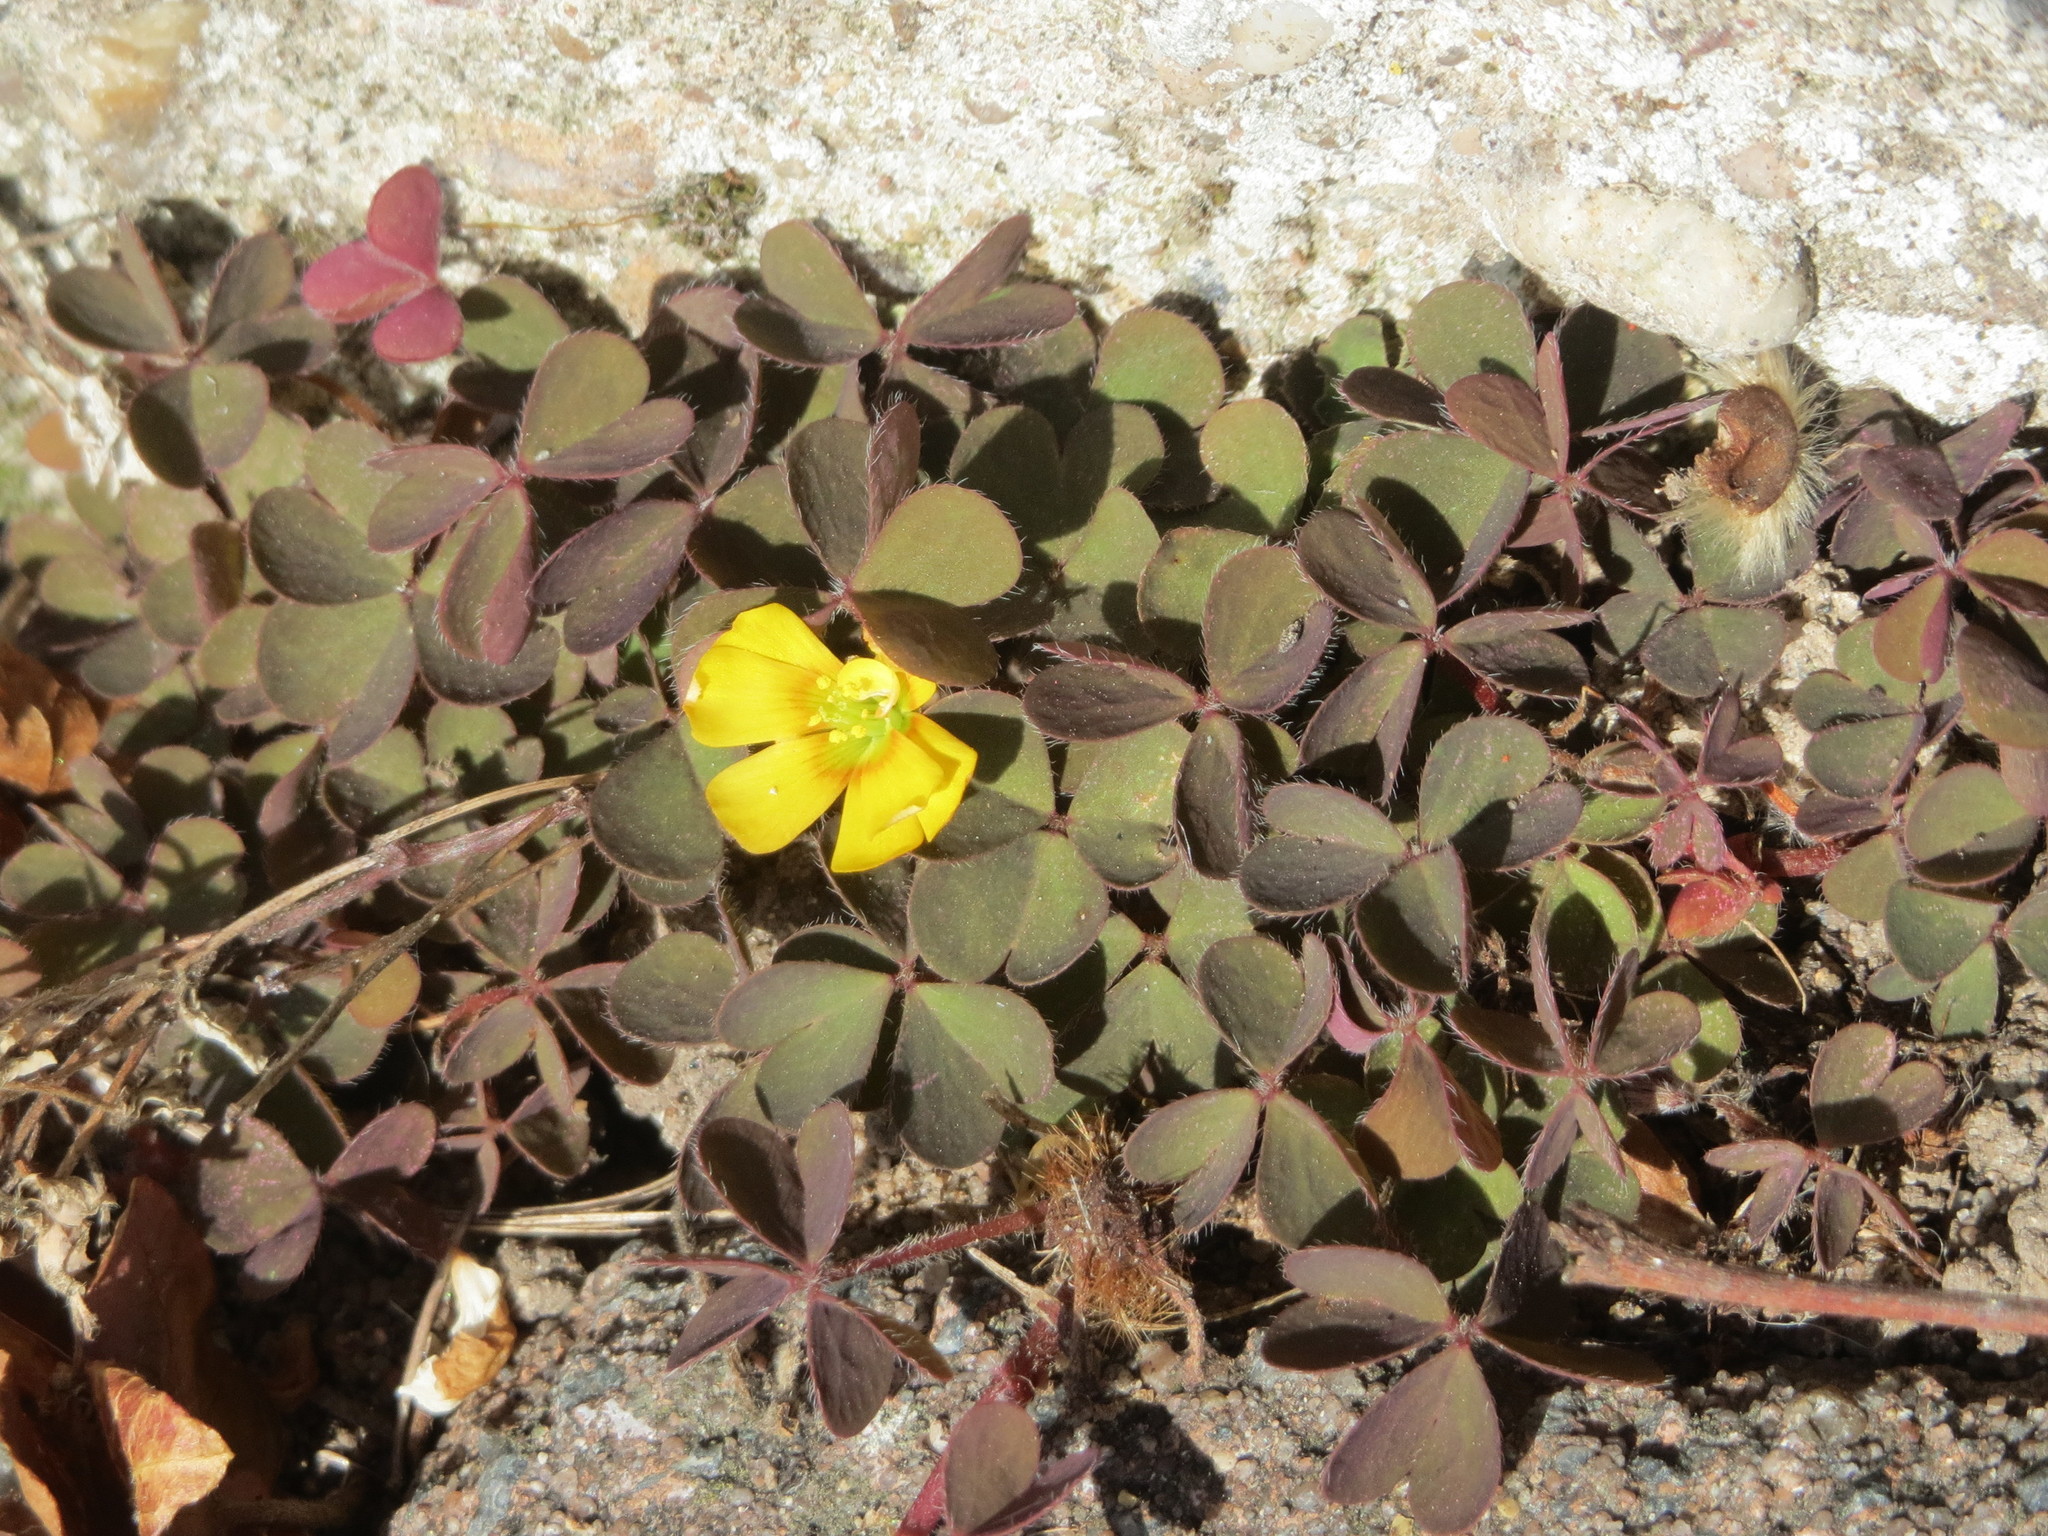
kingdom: Plantae
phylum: Tracheophyta
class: Magnoliopsida
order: Oxalidales
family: Oxalidaceae
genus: Oxalis
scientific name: Oxalis corniculata
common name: Procumbent yellow-sorrel
